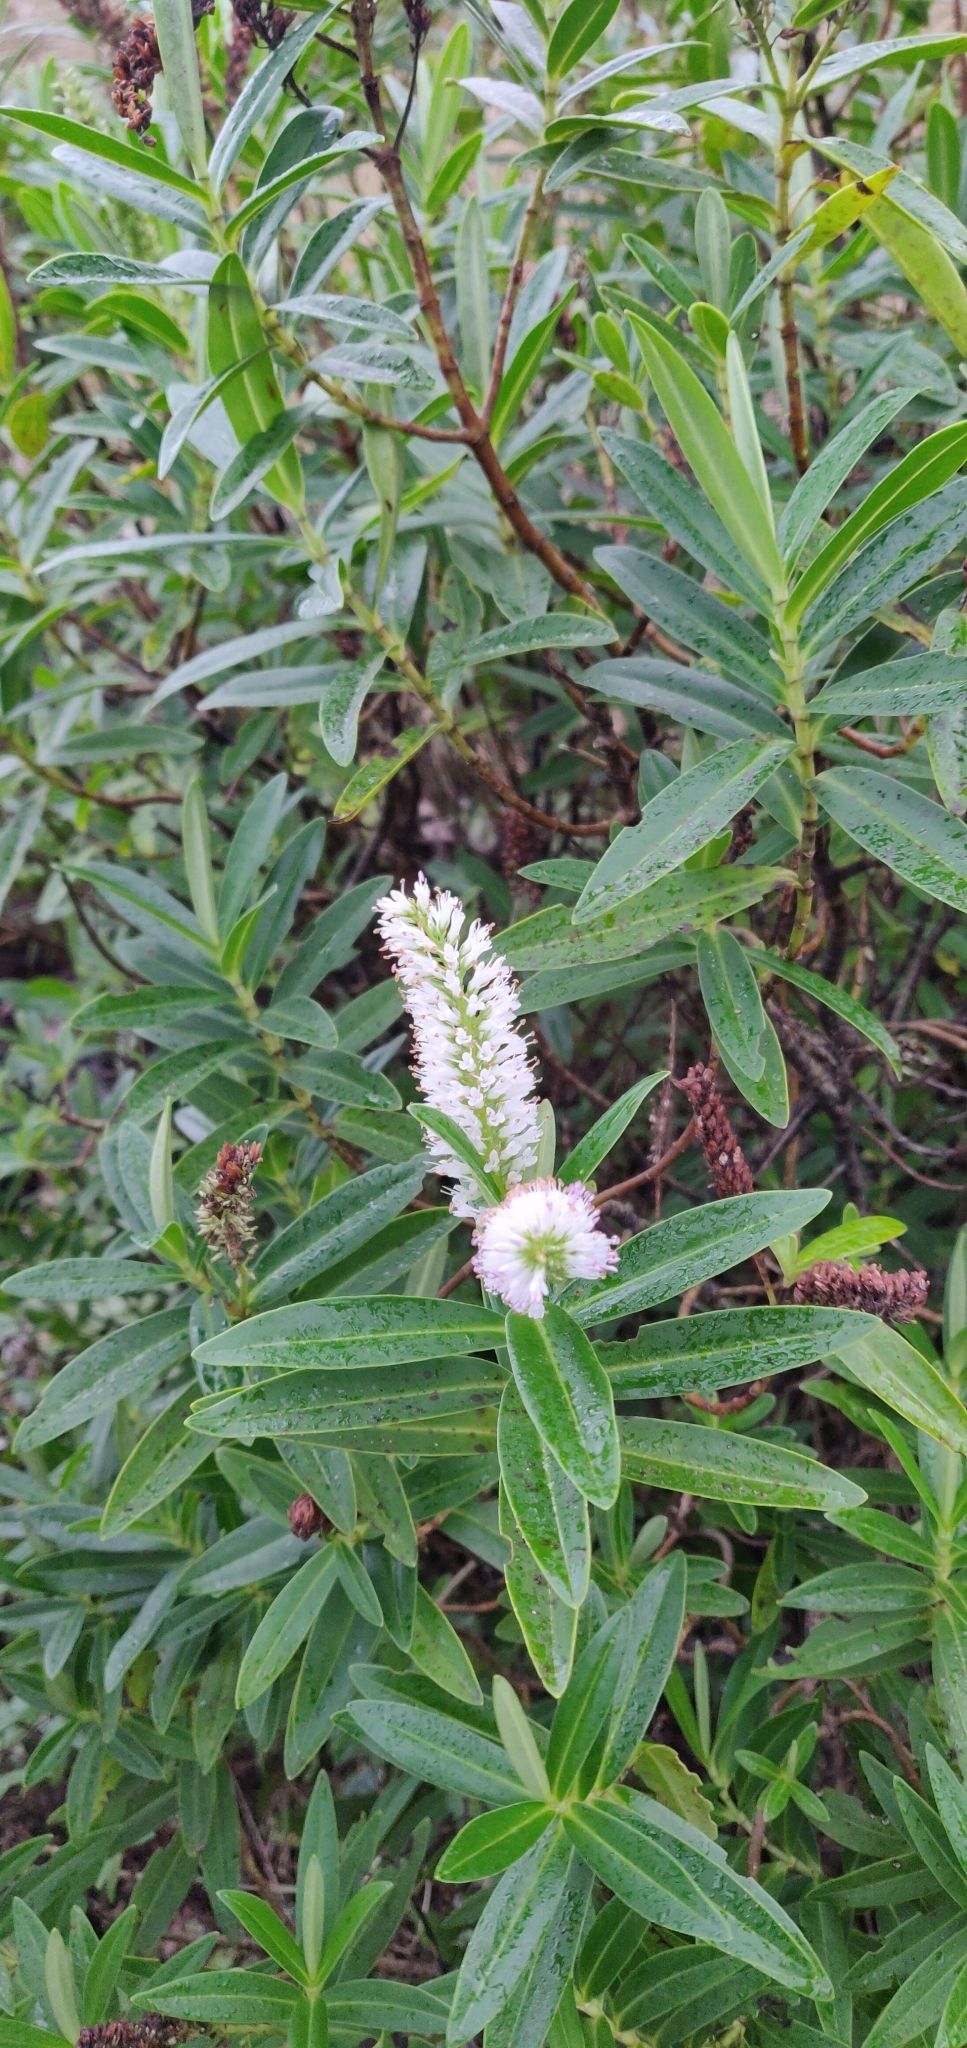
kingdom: Plantae
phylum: Tracheophyta
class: Magnoliopsida
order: Lamiales
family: Plantaginaceae
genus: Veronica
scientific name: Veronica stricta
